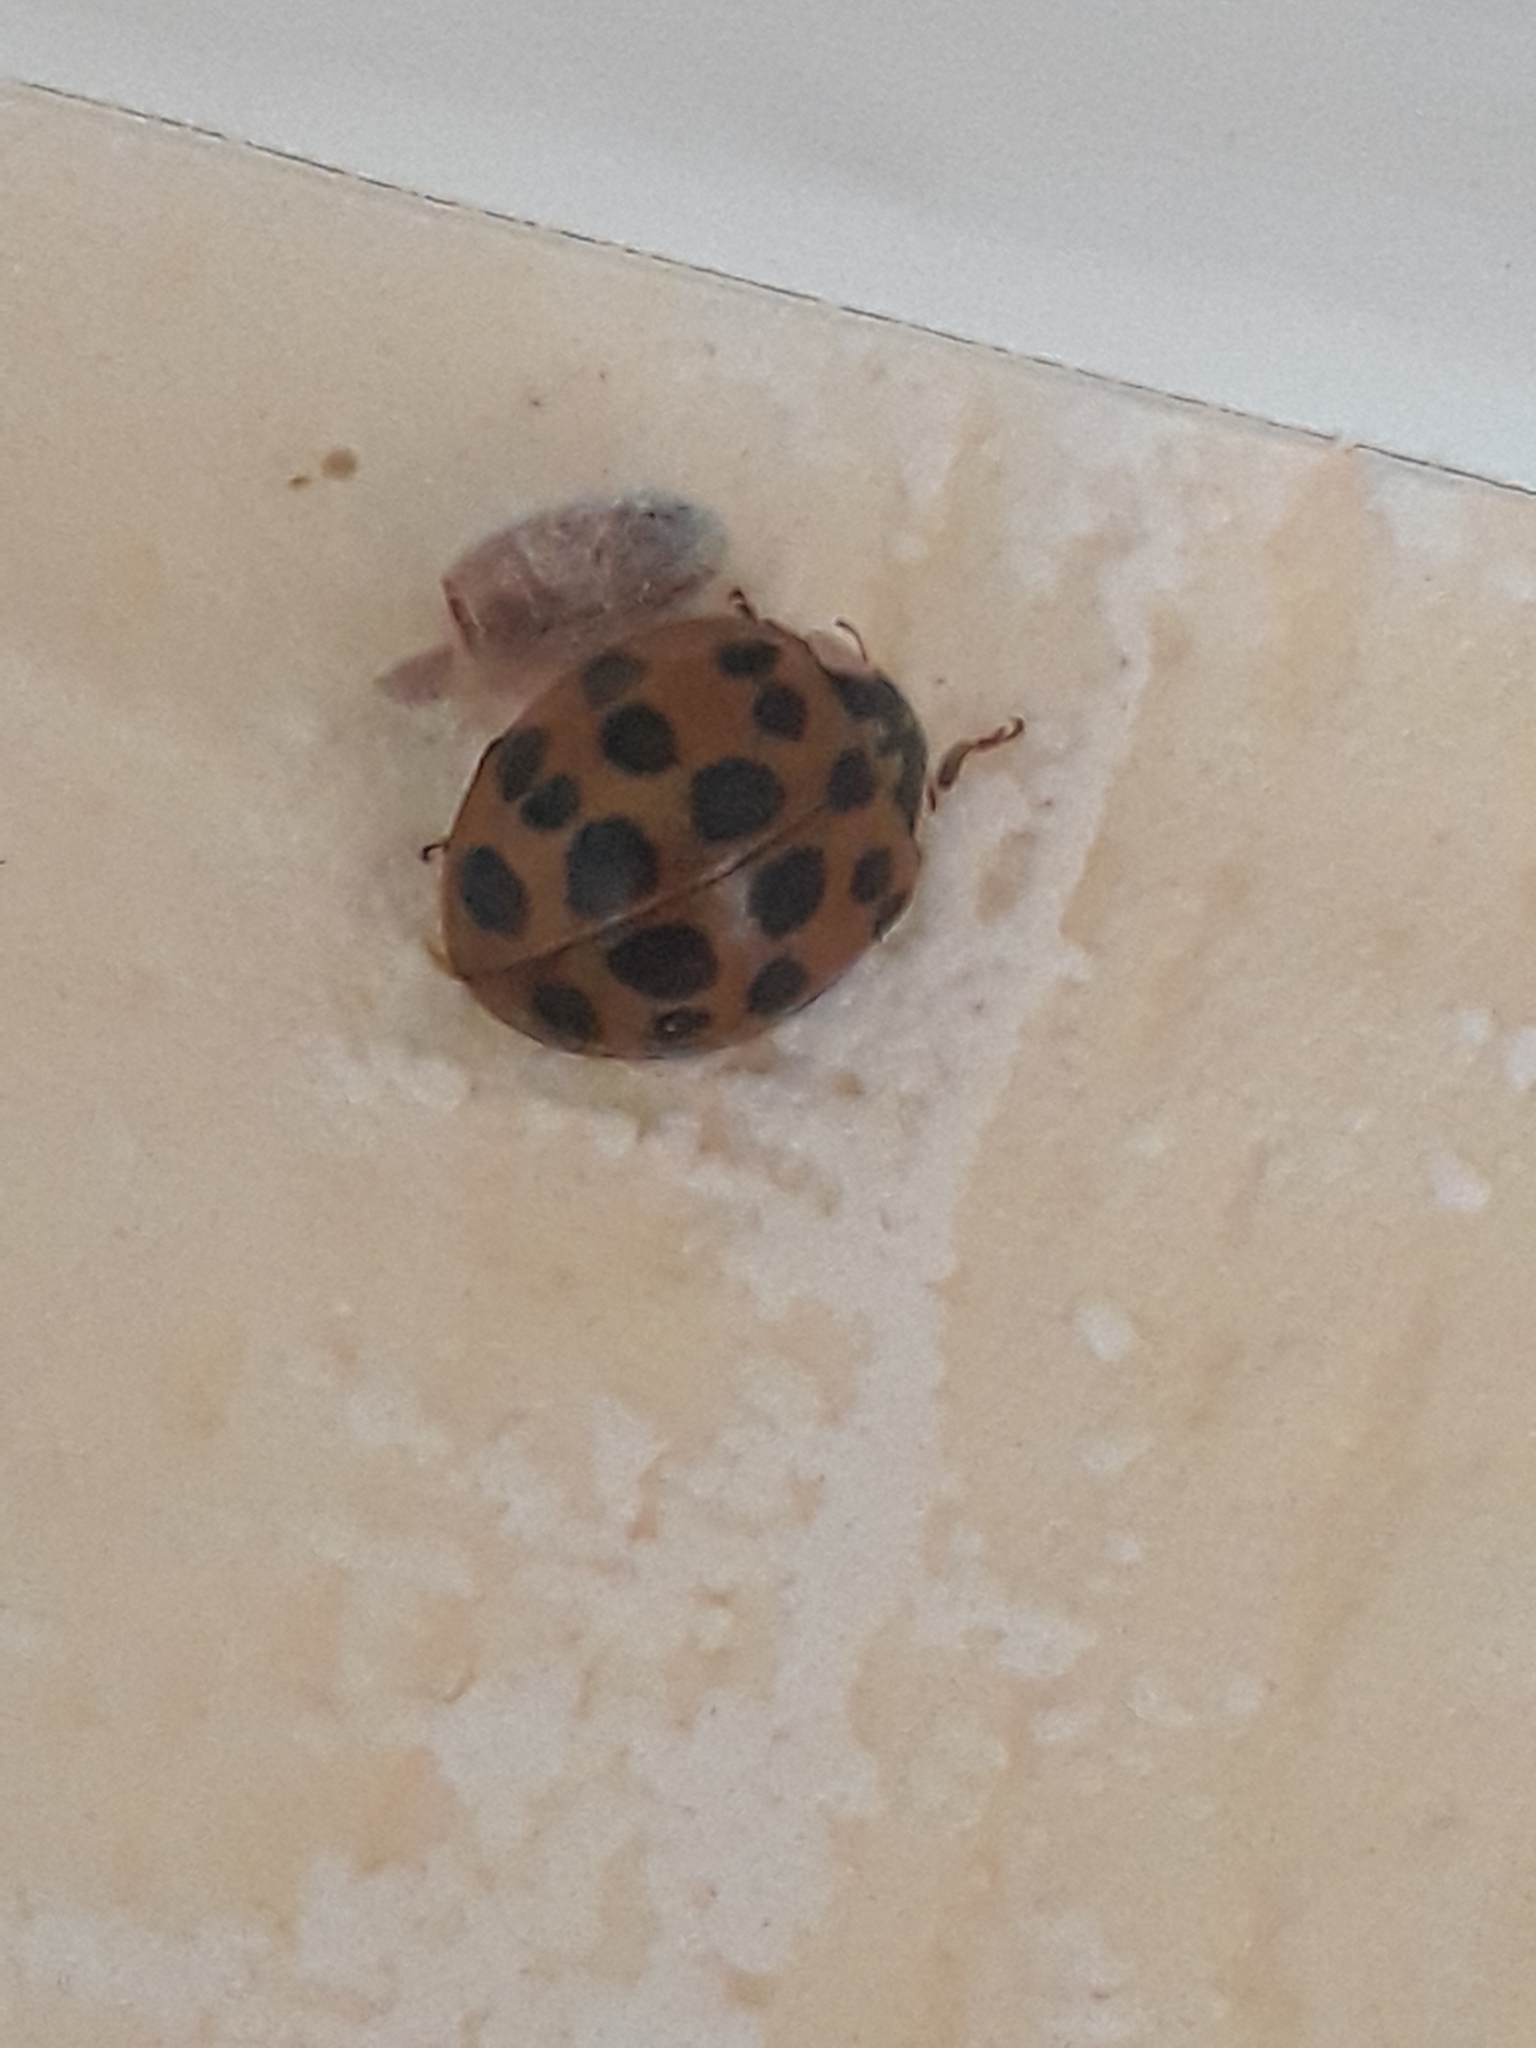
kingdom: Animalia
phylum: Arthropoda
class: Insecta
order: Coleoptera
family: Coccinellidae
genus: Harmonia
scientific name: Harmonia axyridis
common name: Harlequin ladybird
